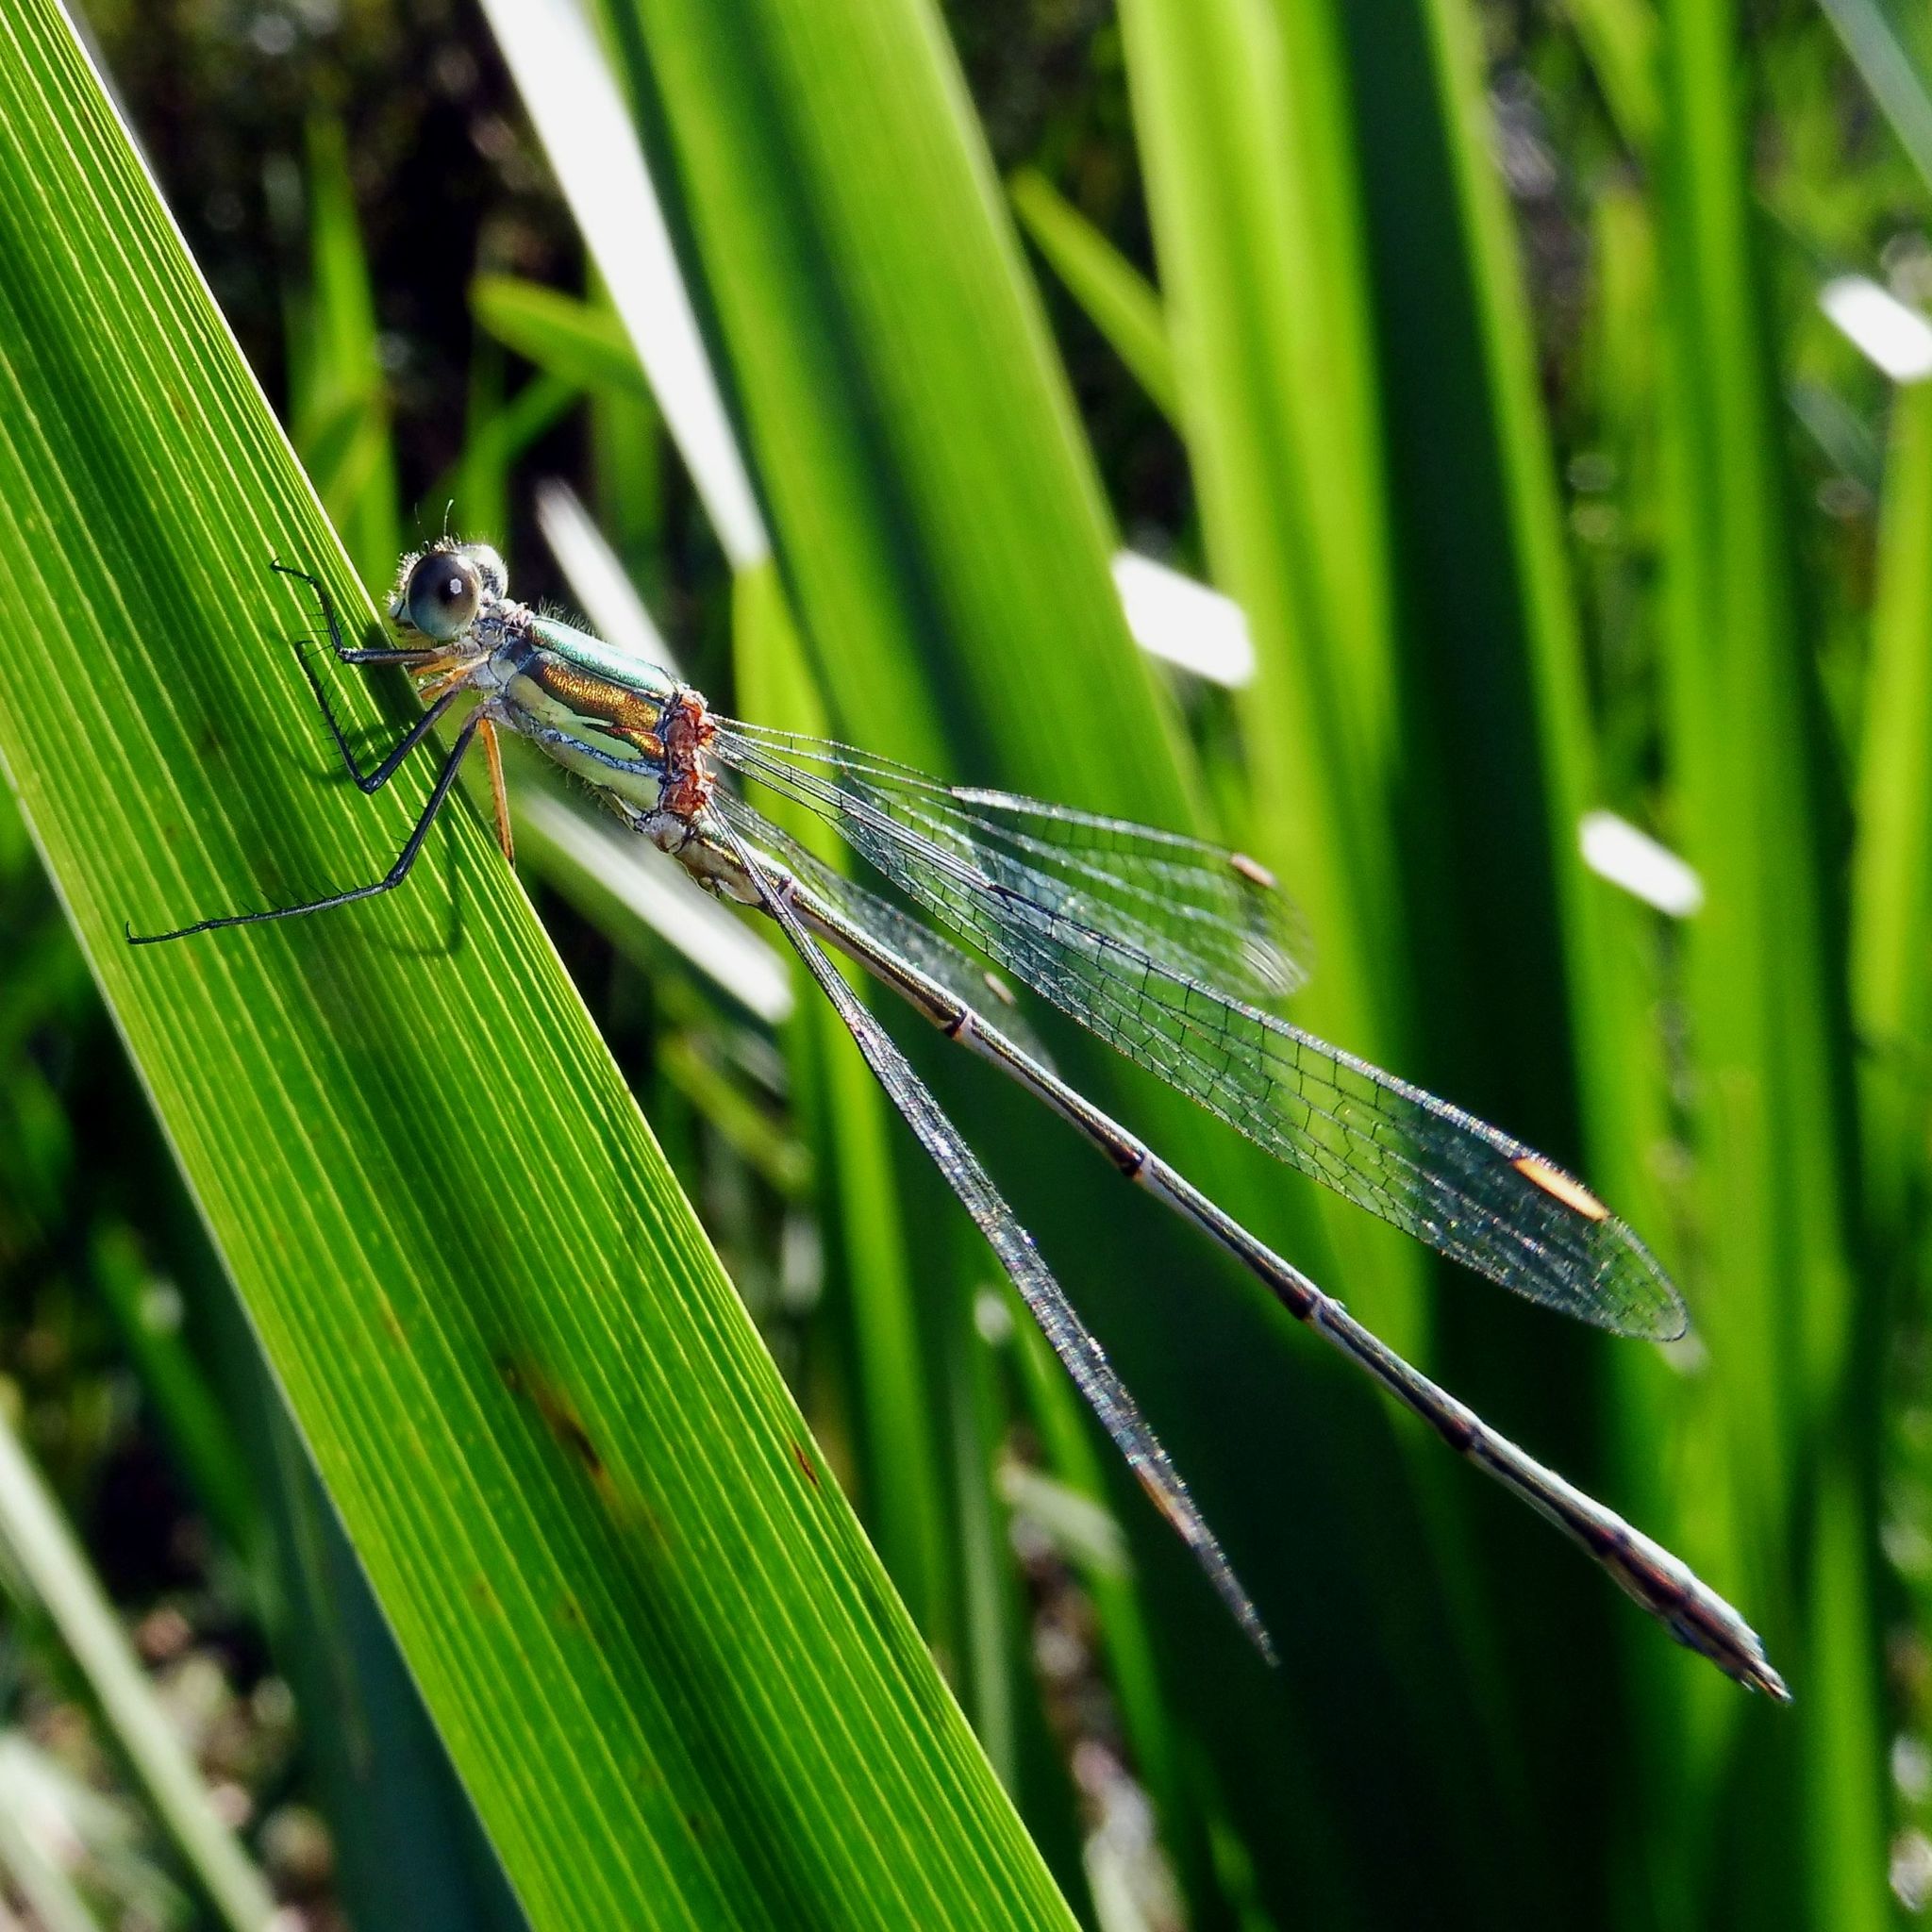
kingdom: Animalia
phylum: Arthropoda
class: Insecta
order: Odonata
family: Lestidae
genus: Chalcolestes
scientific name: Chalcolestes viridis
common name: Green emerald damselfly
